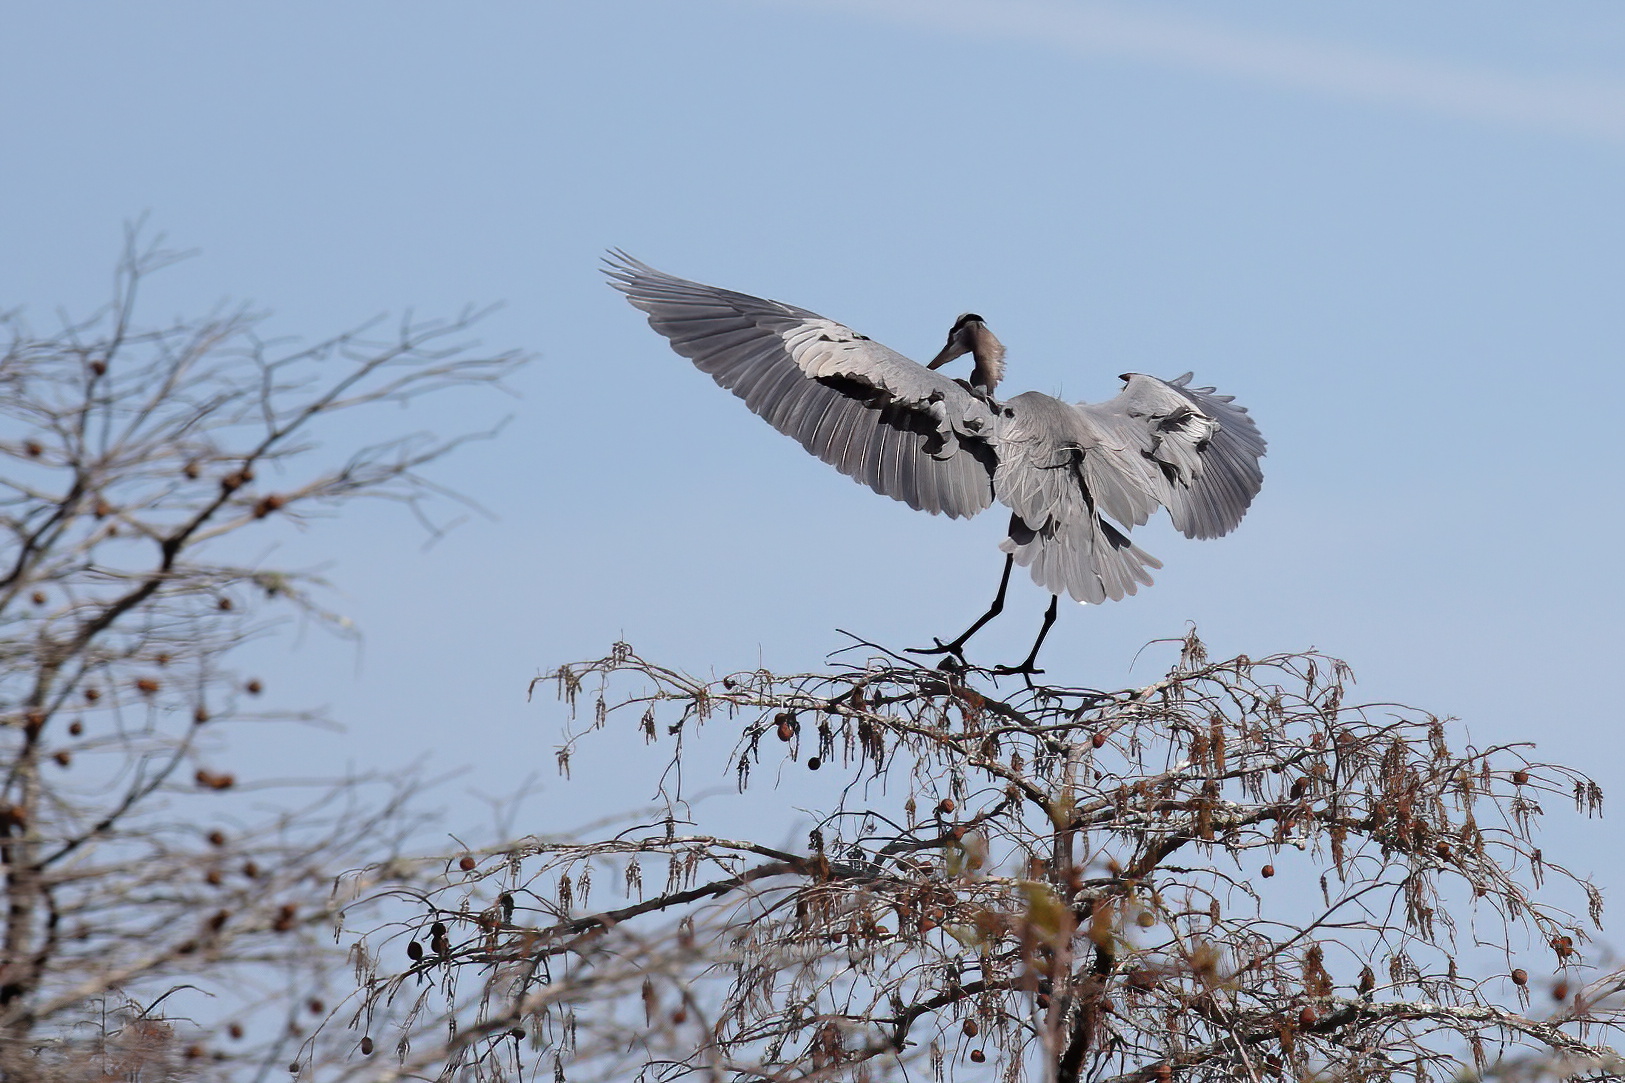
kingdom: Animalia
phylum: Chordata
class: Aves
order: Pelecaniformes
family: Ardeidae
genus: Ardea
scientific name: Ardea herodias
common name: Great blue heron
